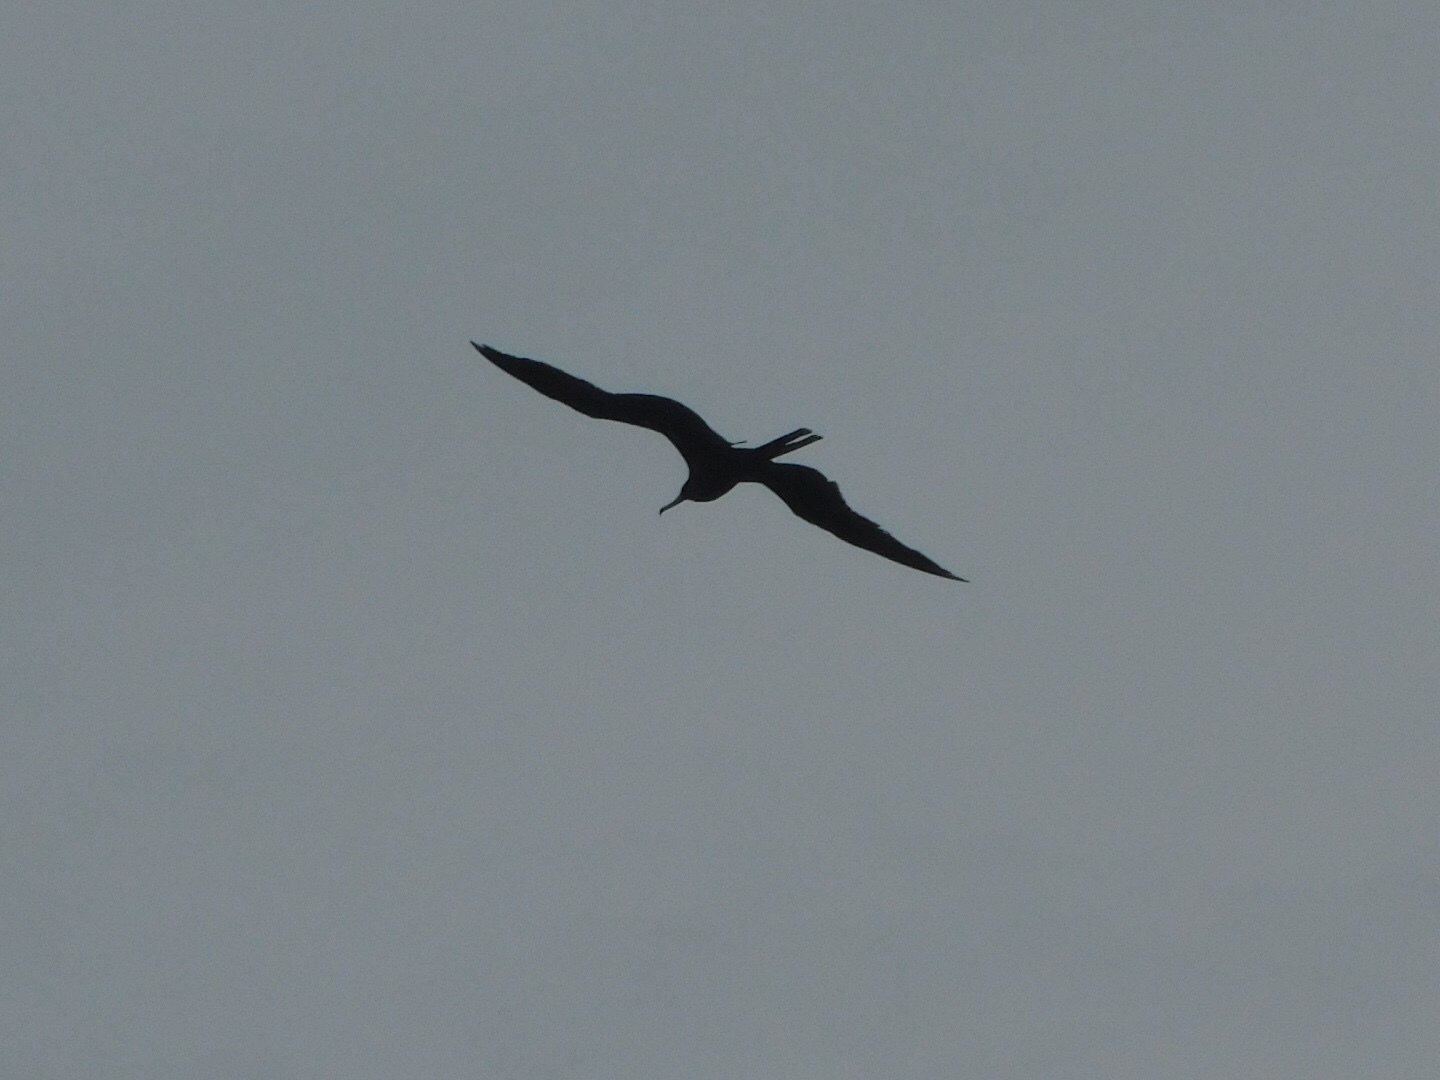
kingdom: Animalia
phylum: Chordata
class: Aves
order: Suliformes
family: Fregatidae
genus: Fregata
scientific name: Fregata magnificens
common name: Magnificent frigatebird
